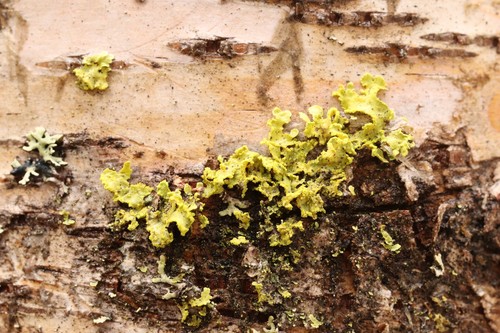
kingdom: Fungi
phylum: Ascomycota
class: Lecanoromycetes
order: Lecanorales
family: Parmeliaceae
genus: Vulpicida
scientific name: Vulpicida pinastri
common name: Powdered sunshine lichen
